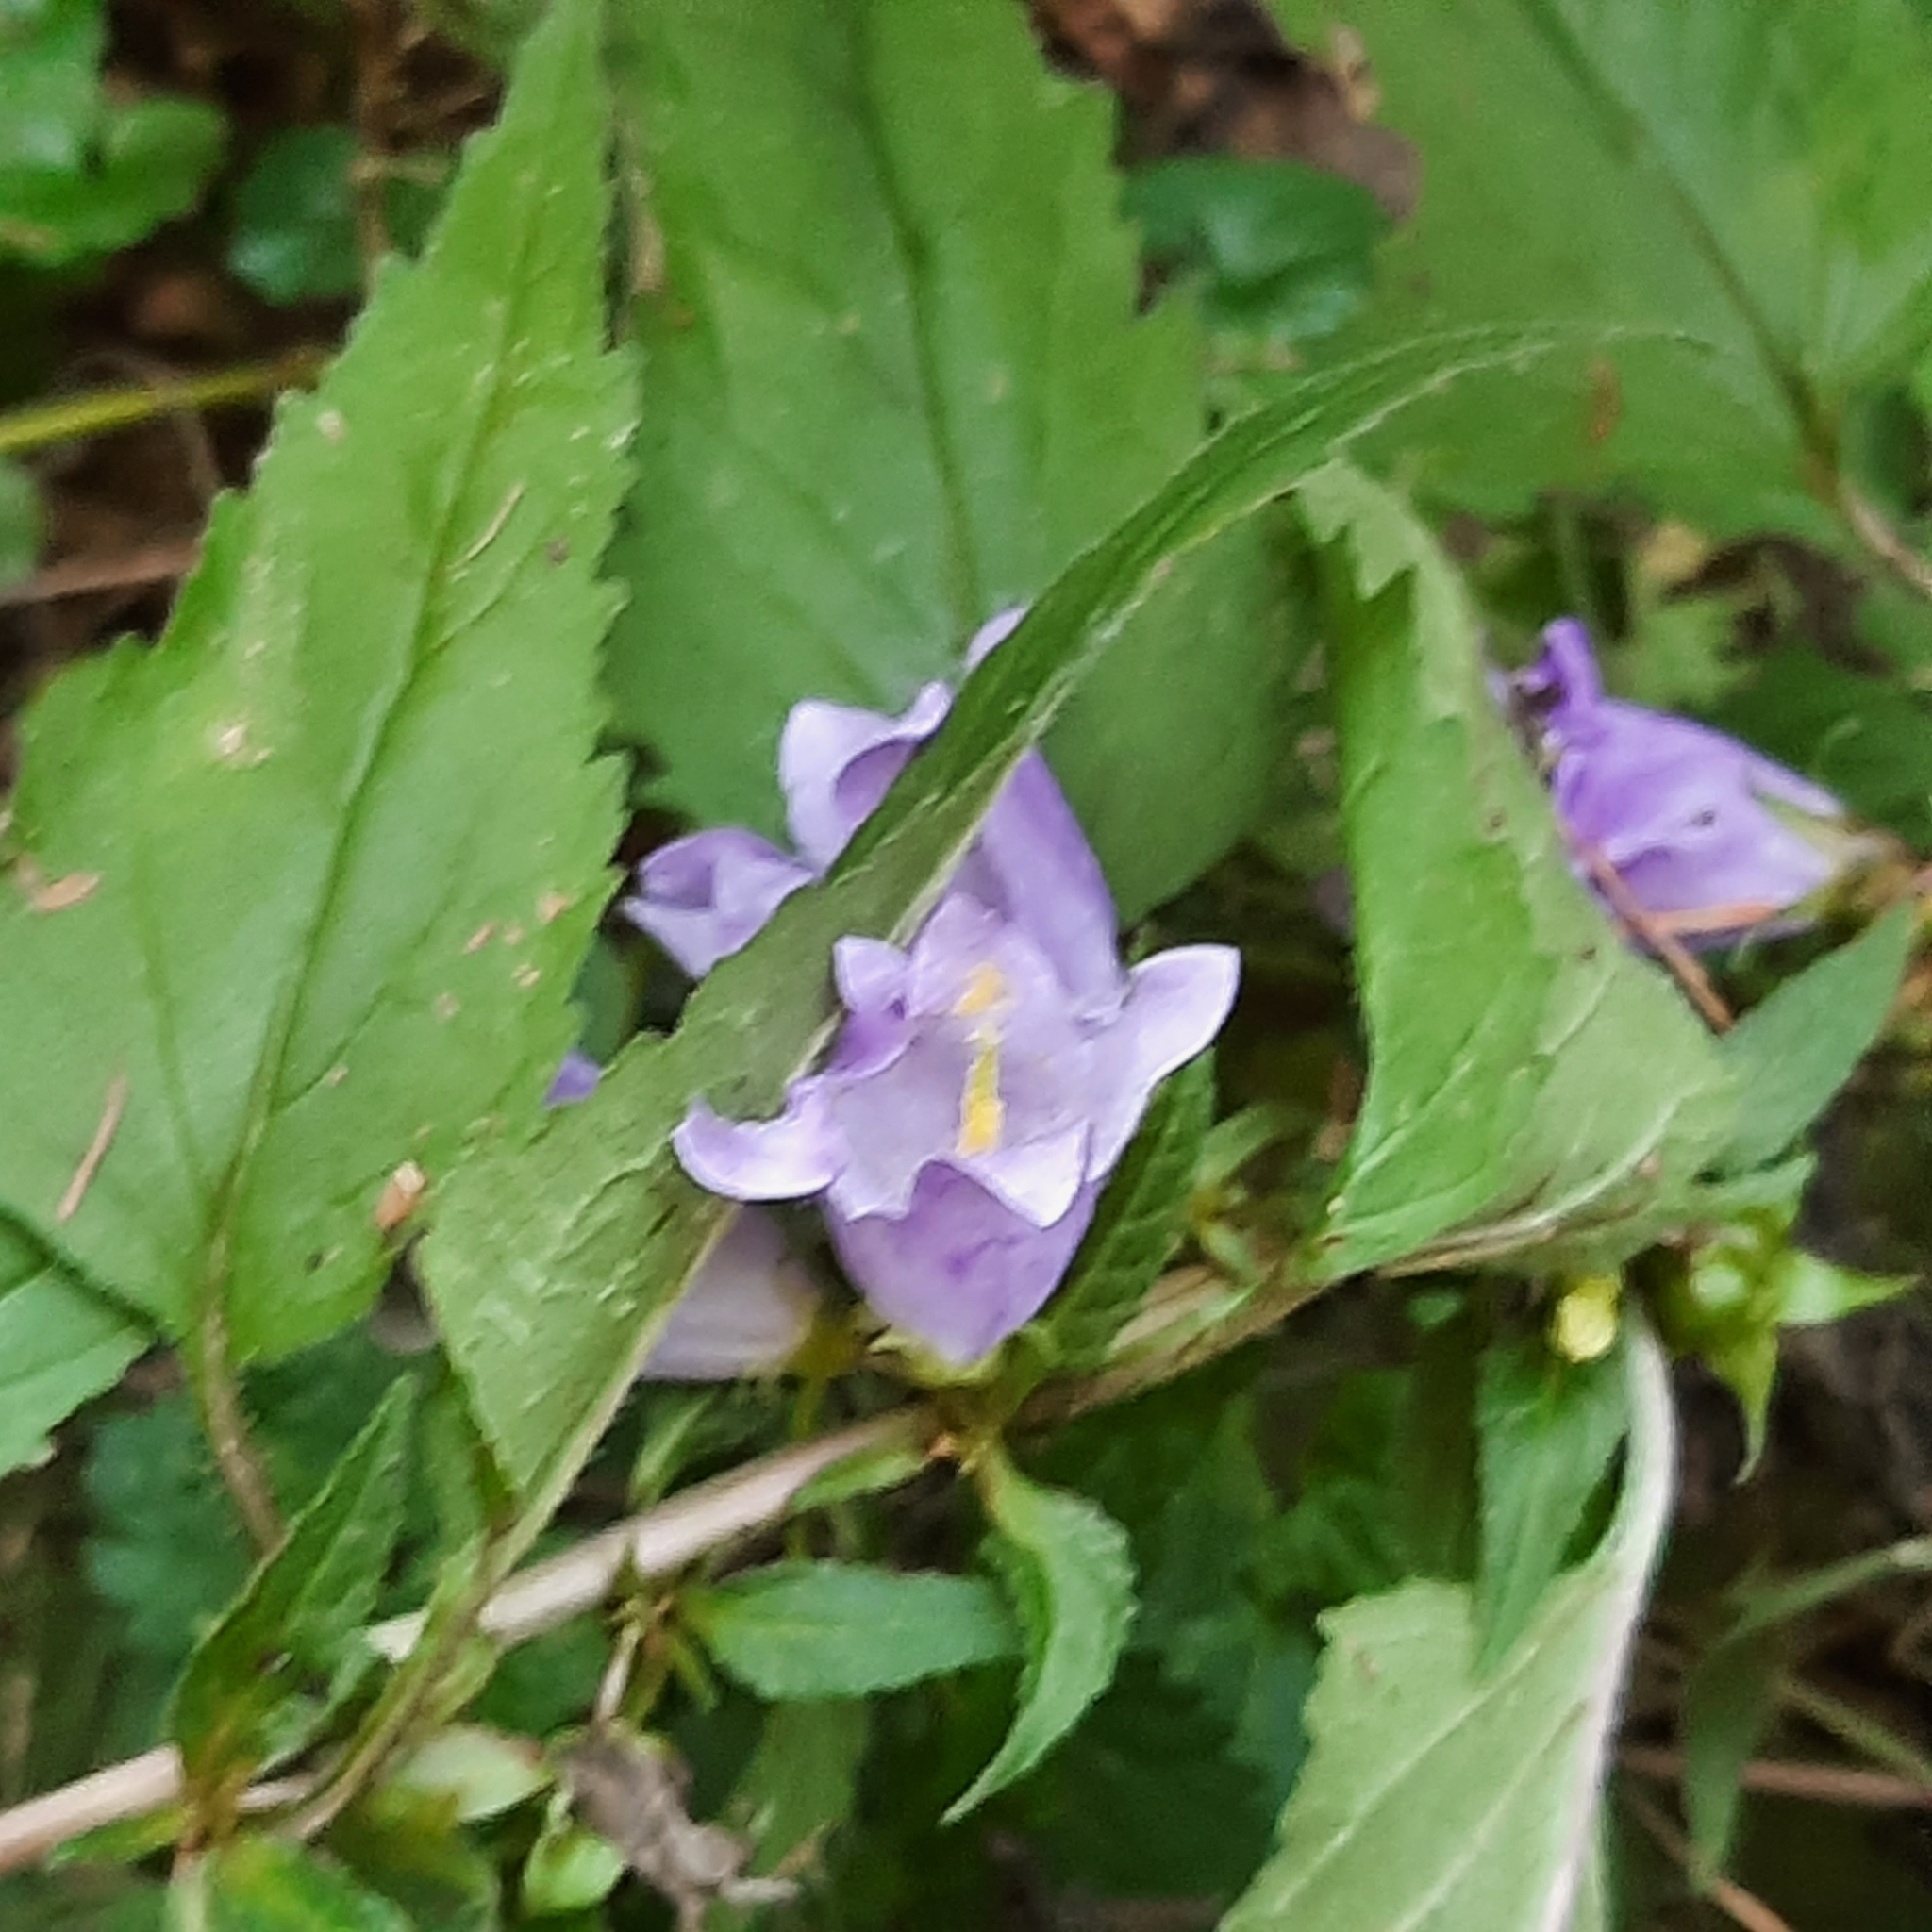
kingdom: Plantae
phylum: Tracheophyta
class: Magnoliopsida
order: Asterales
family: Campanulaceae
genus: Campanula
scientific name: Campanula trachelium
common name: Nettle-leaved bellflower
